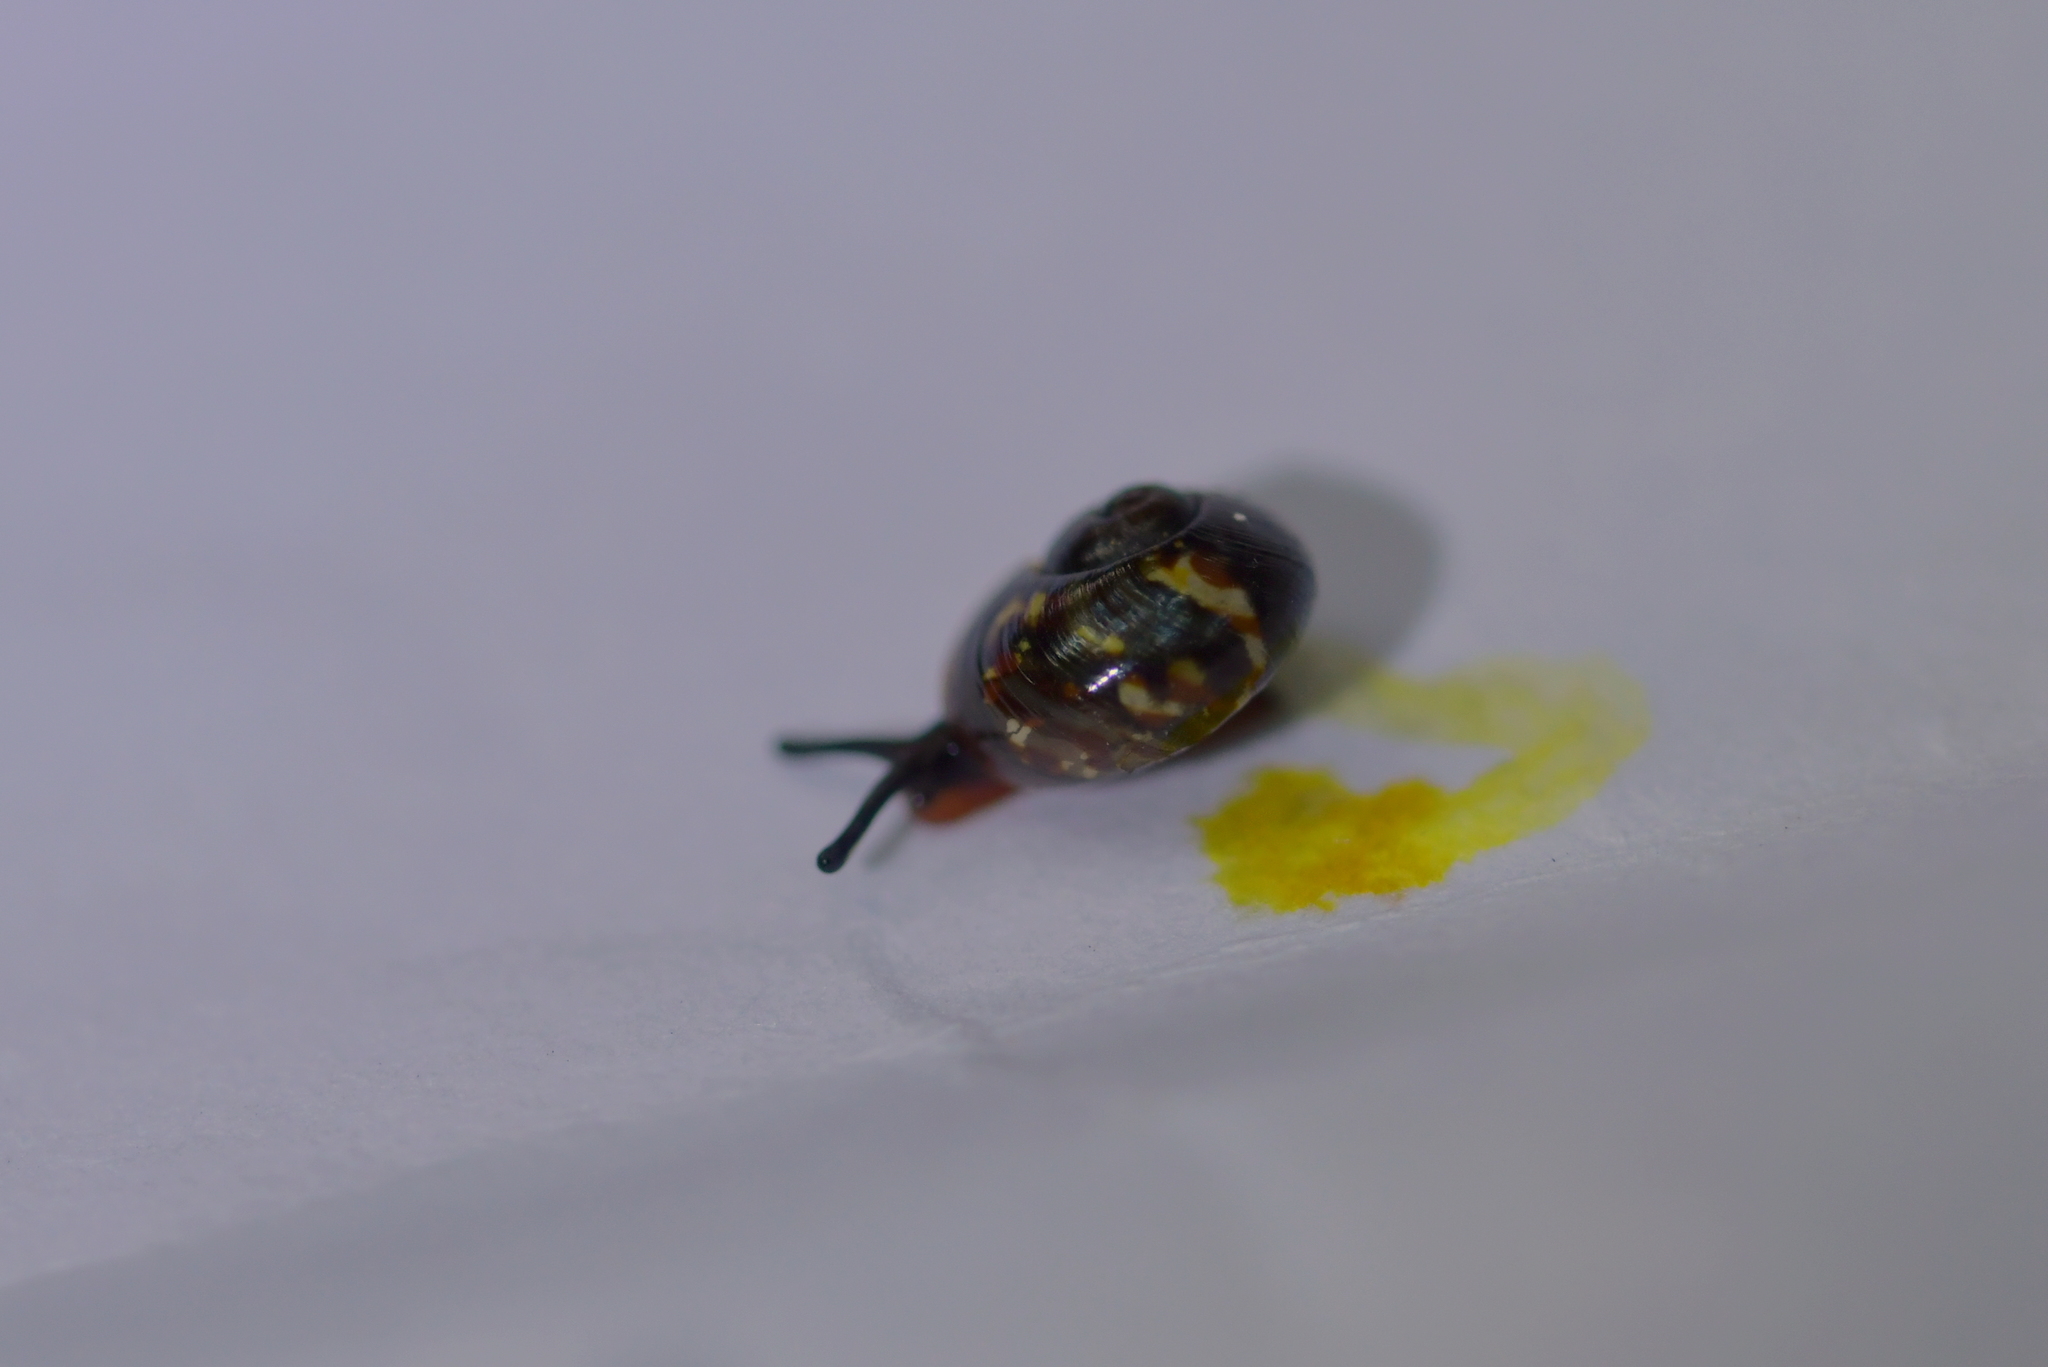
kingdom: Animalia
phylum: Mollusca
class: Gastropoda
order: Stylommatophora
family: Charopidae
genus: Flammulina
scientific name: Flammulina zebra
